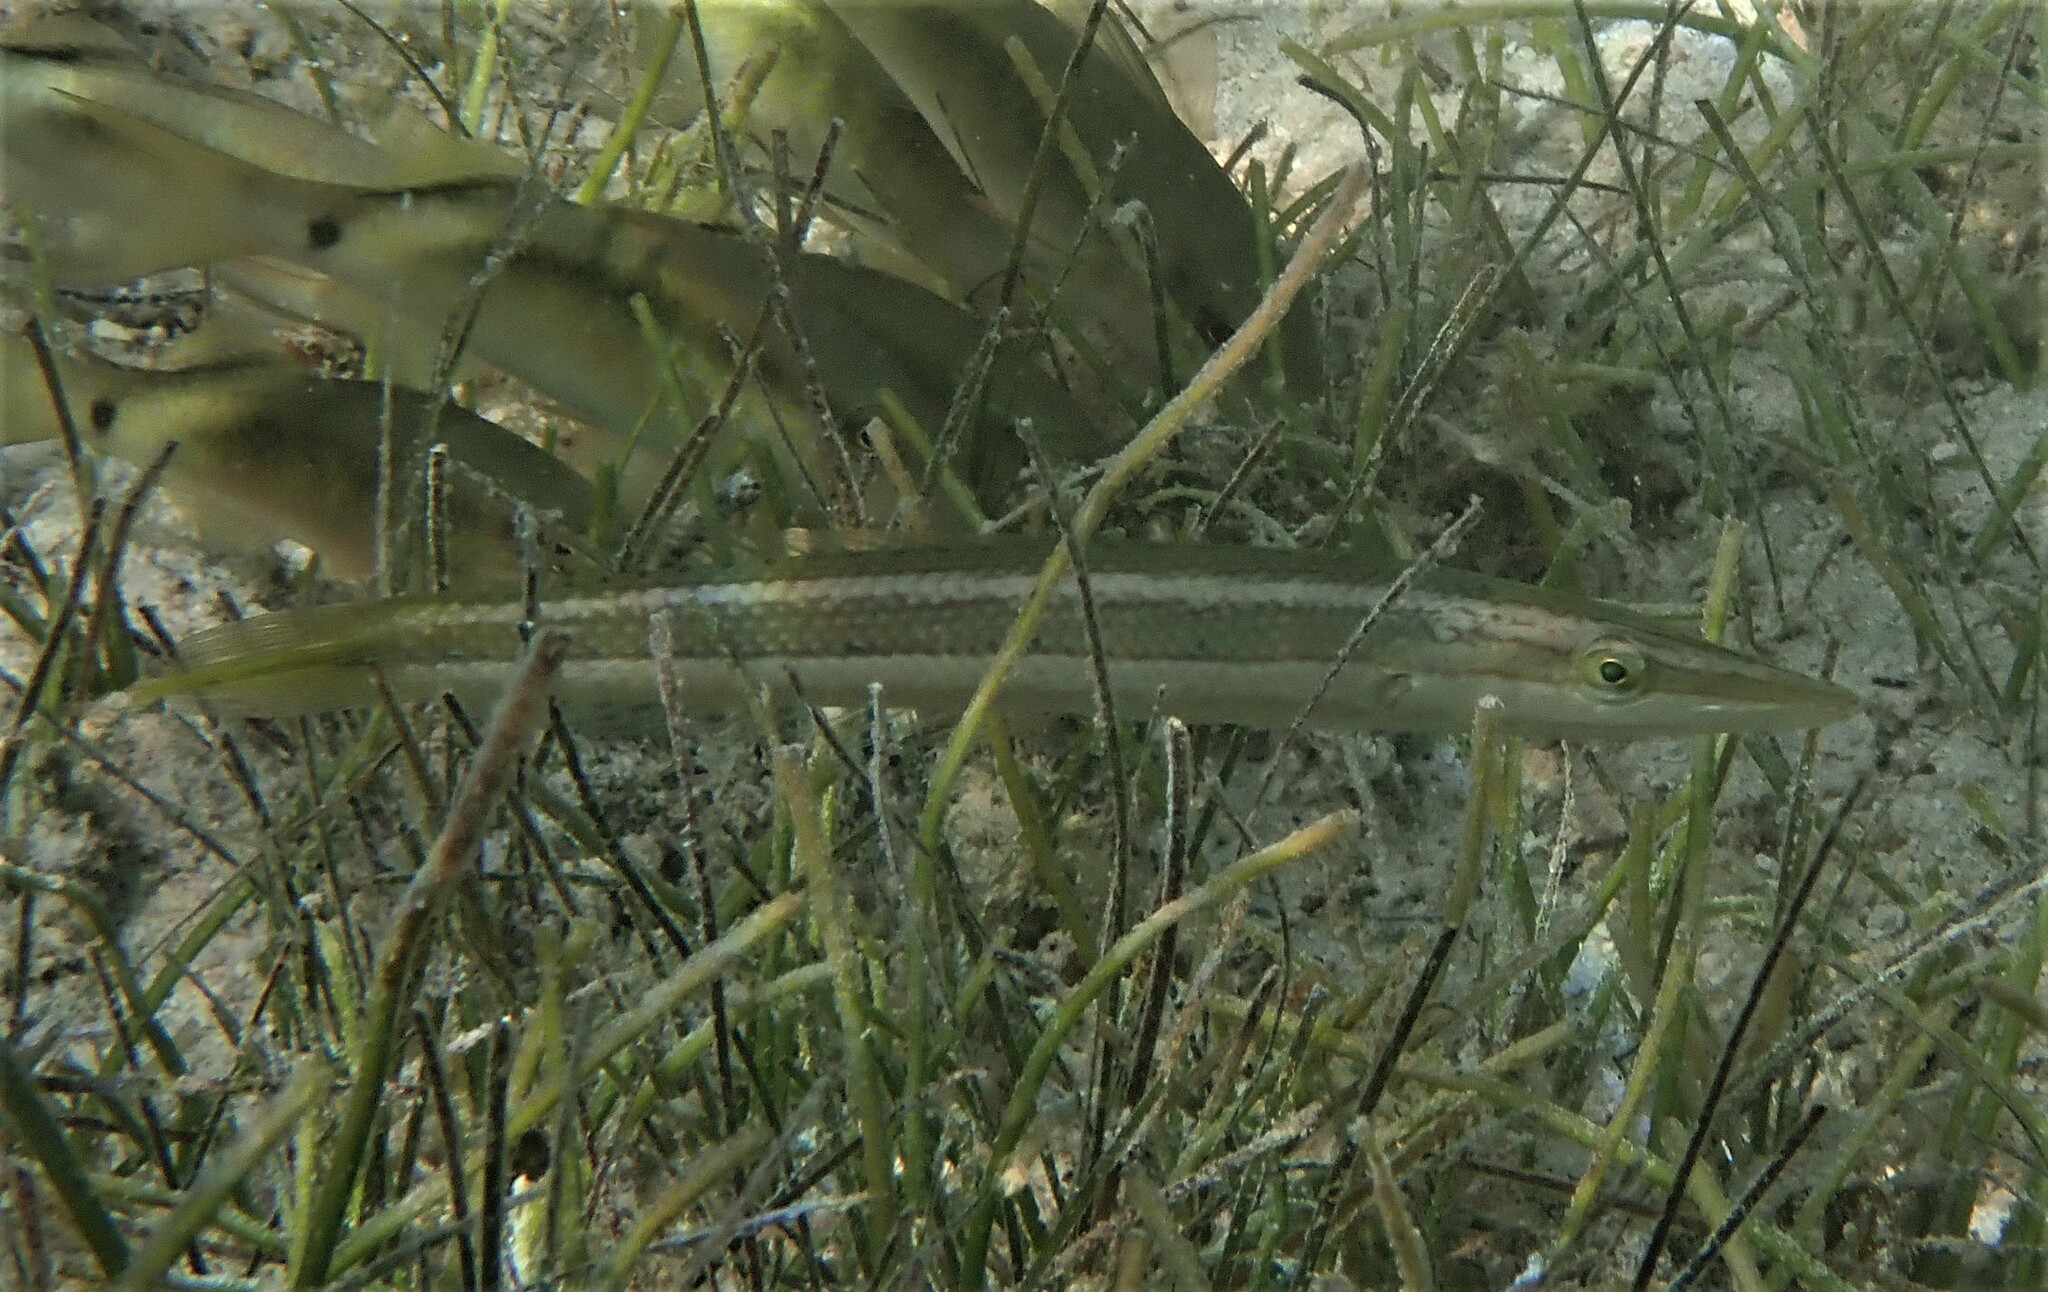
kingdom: Animalia
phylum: Chordata
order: Perciformes
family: Labridae
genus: Cheilio
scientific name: Cheilio inermis
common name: Cigar wrasse
